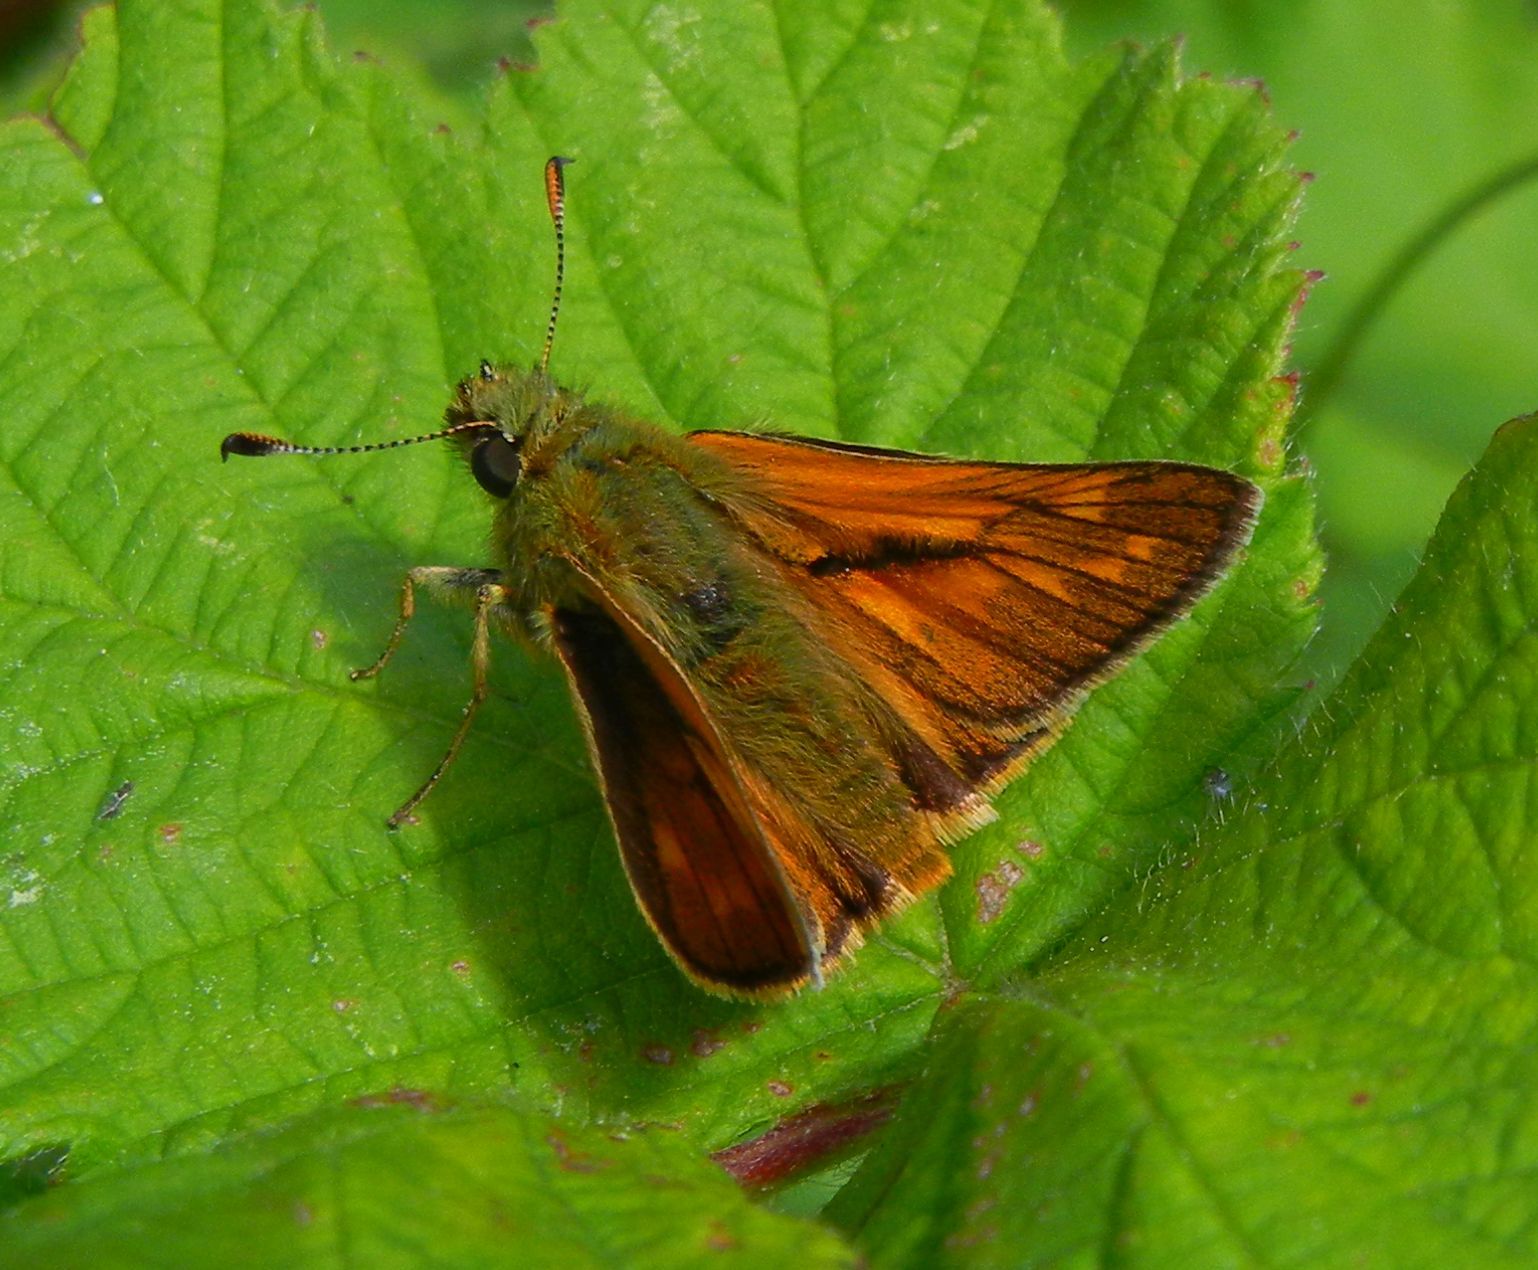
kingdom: Animalia
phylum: Arthropoda
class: Insecta
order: Lepidoptera
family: Hesperiidae
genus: Ochlodes
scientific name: Ochlodes venata
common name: Large skipper
